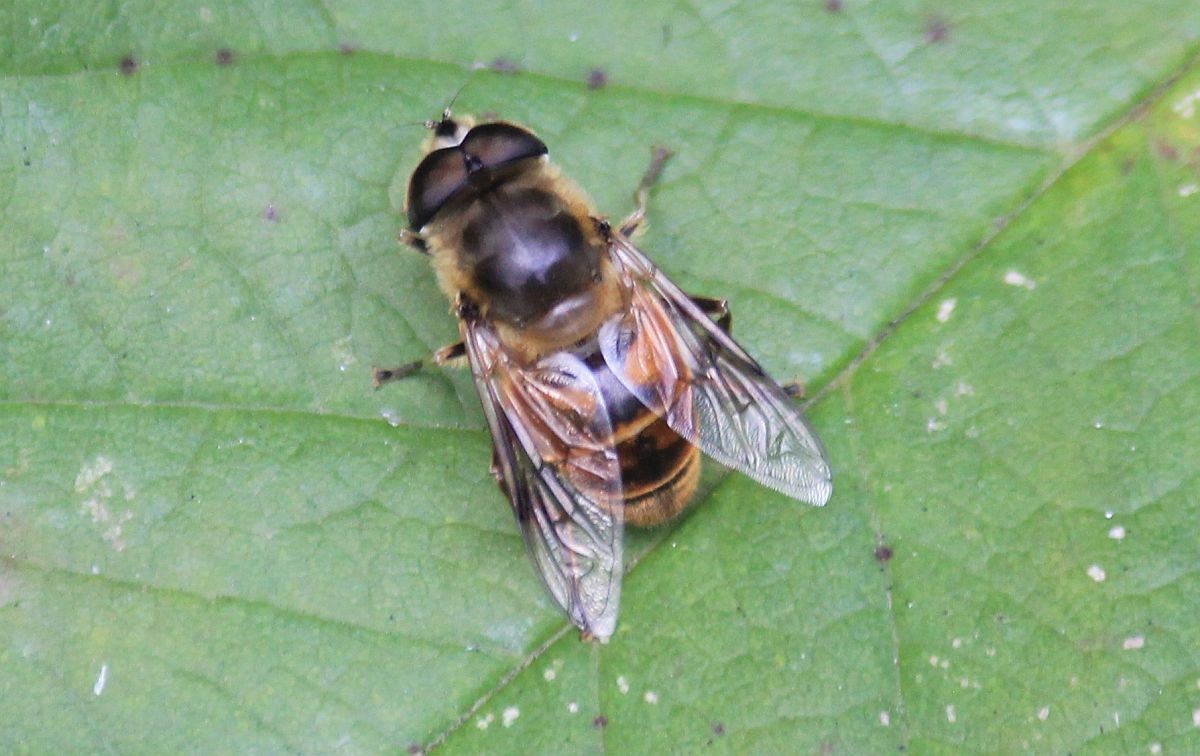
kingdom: Animalia
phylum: Arthropoda
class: Insecta
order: Diptera
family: Syrphidae
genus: Eristalis
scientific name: Eristalis tenax
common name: Drone fly
